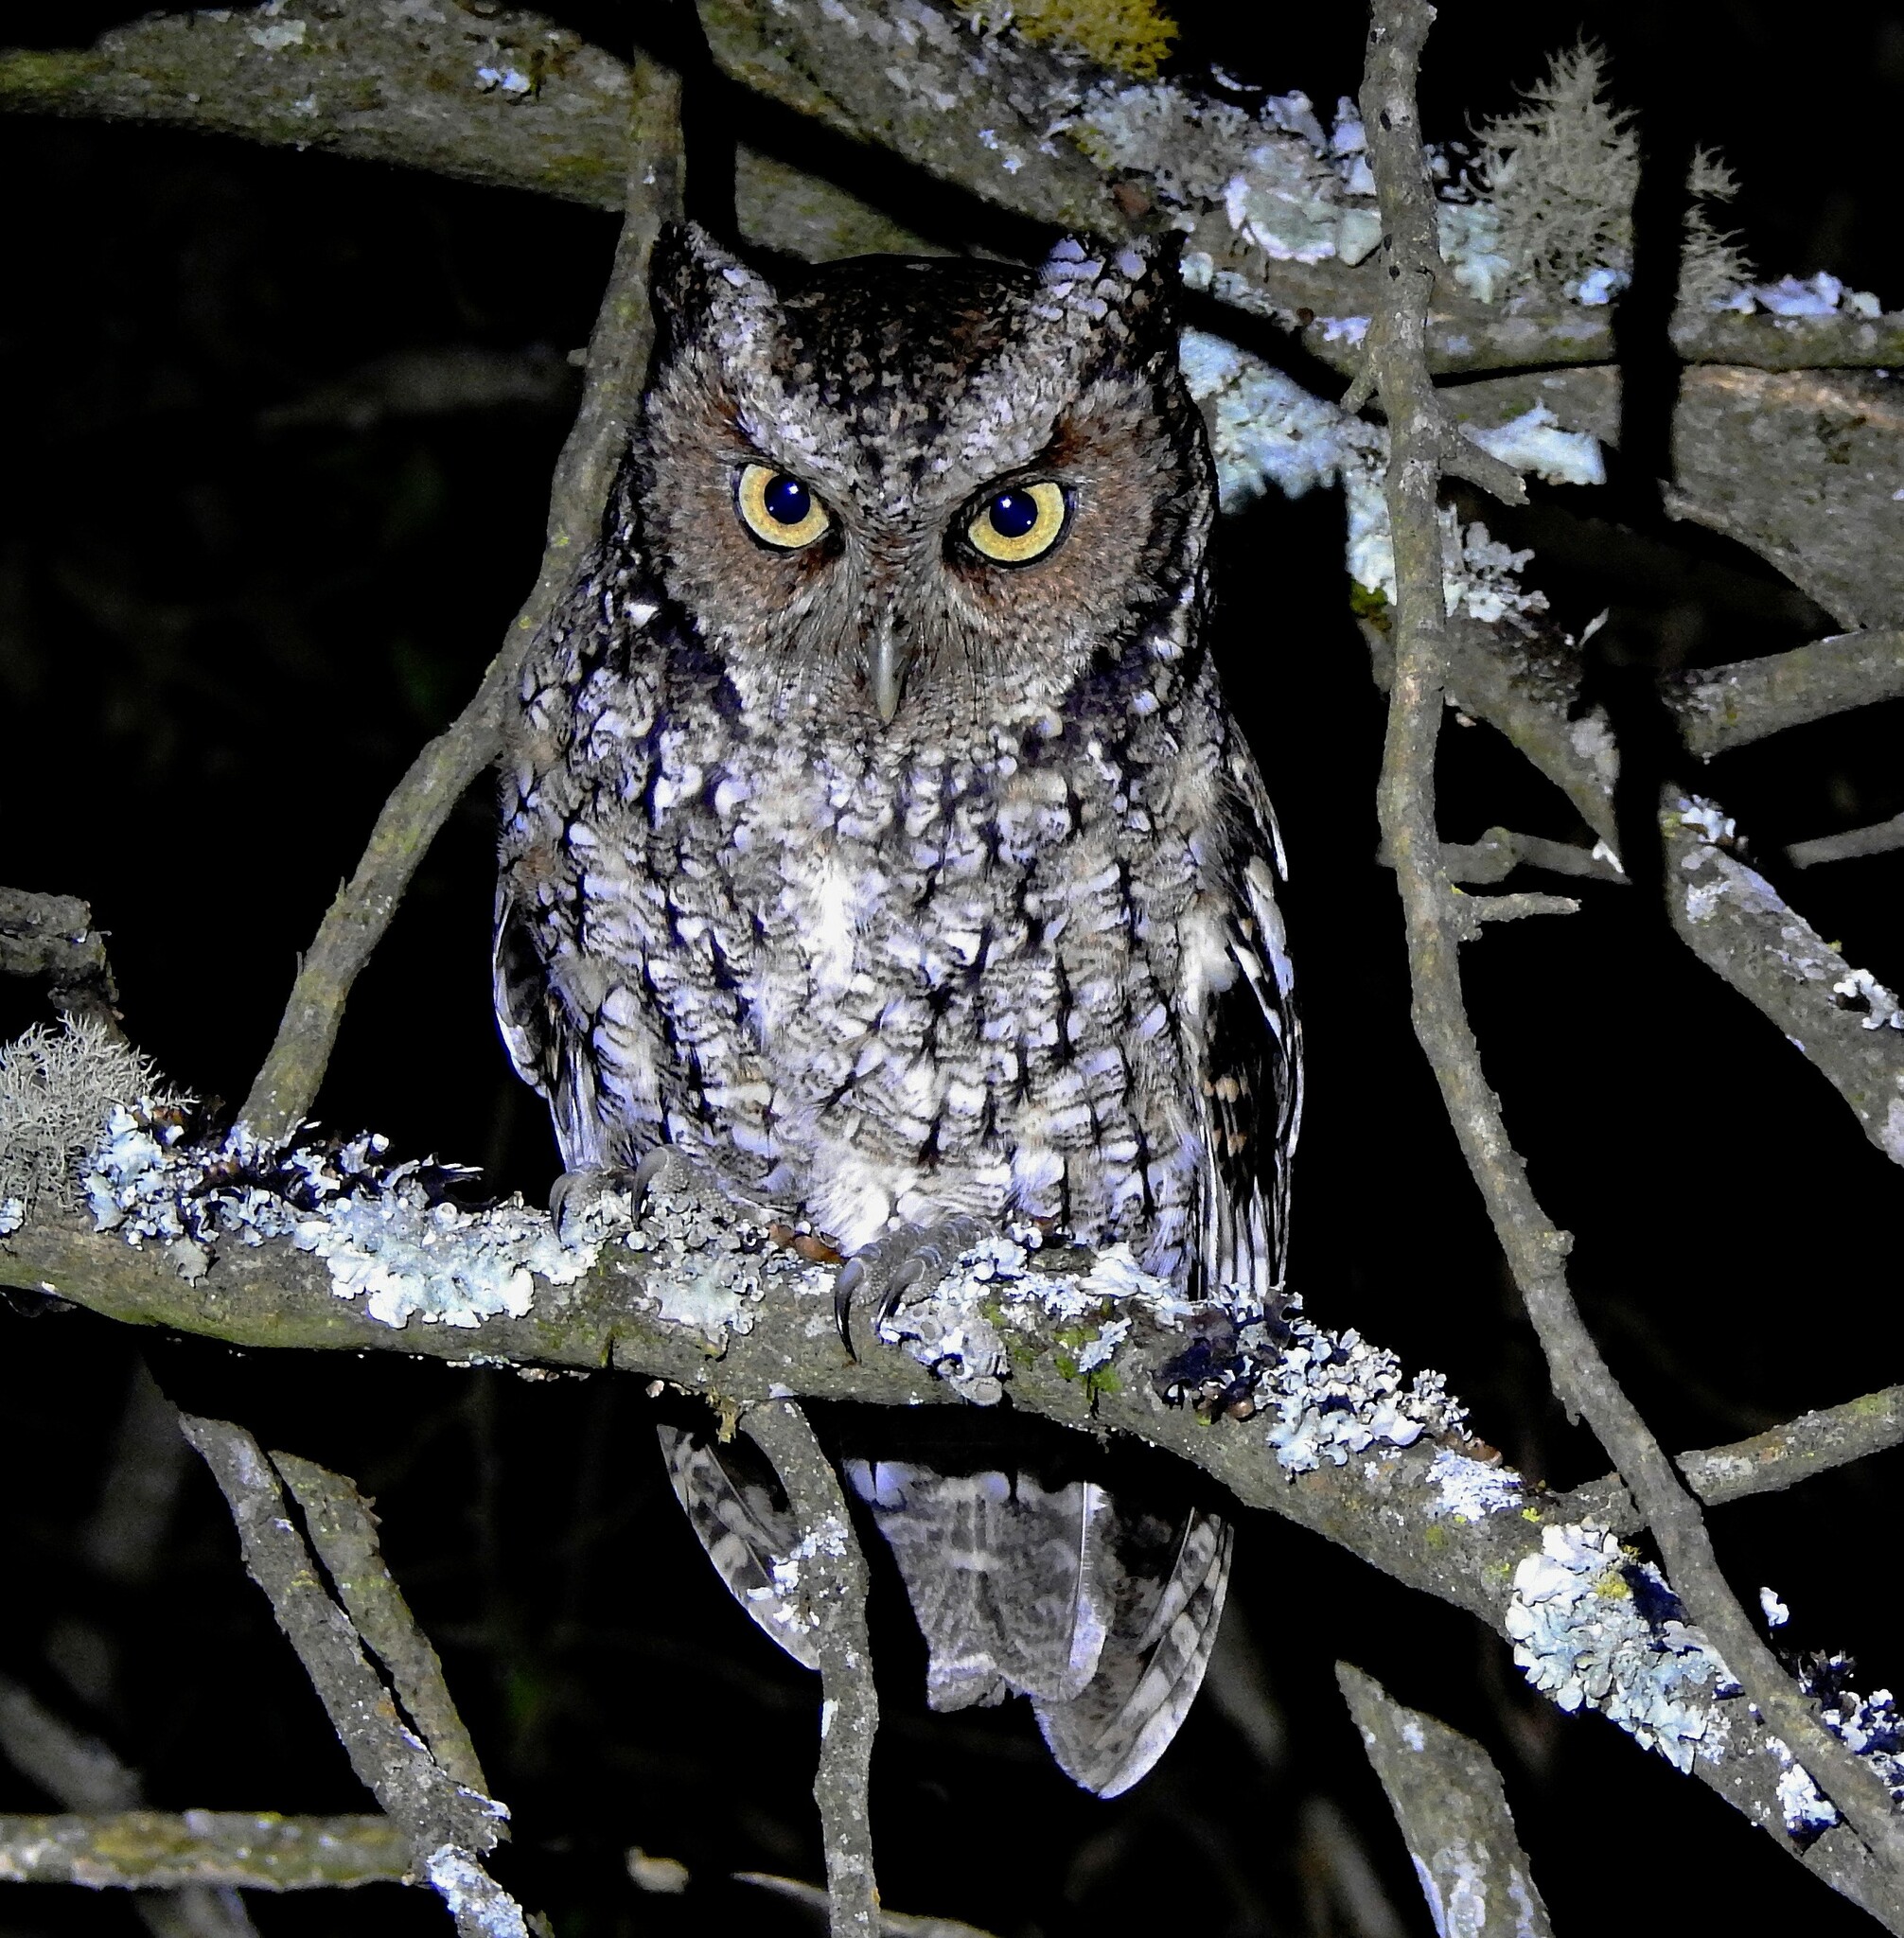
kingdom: Animalia
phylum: Chordata
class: Aves
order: Strigiformes
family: Strigidae
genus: Megascops
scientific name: Megascops hoyi
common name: Yungas screech owl
